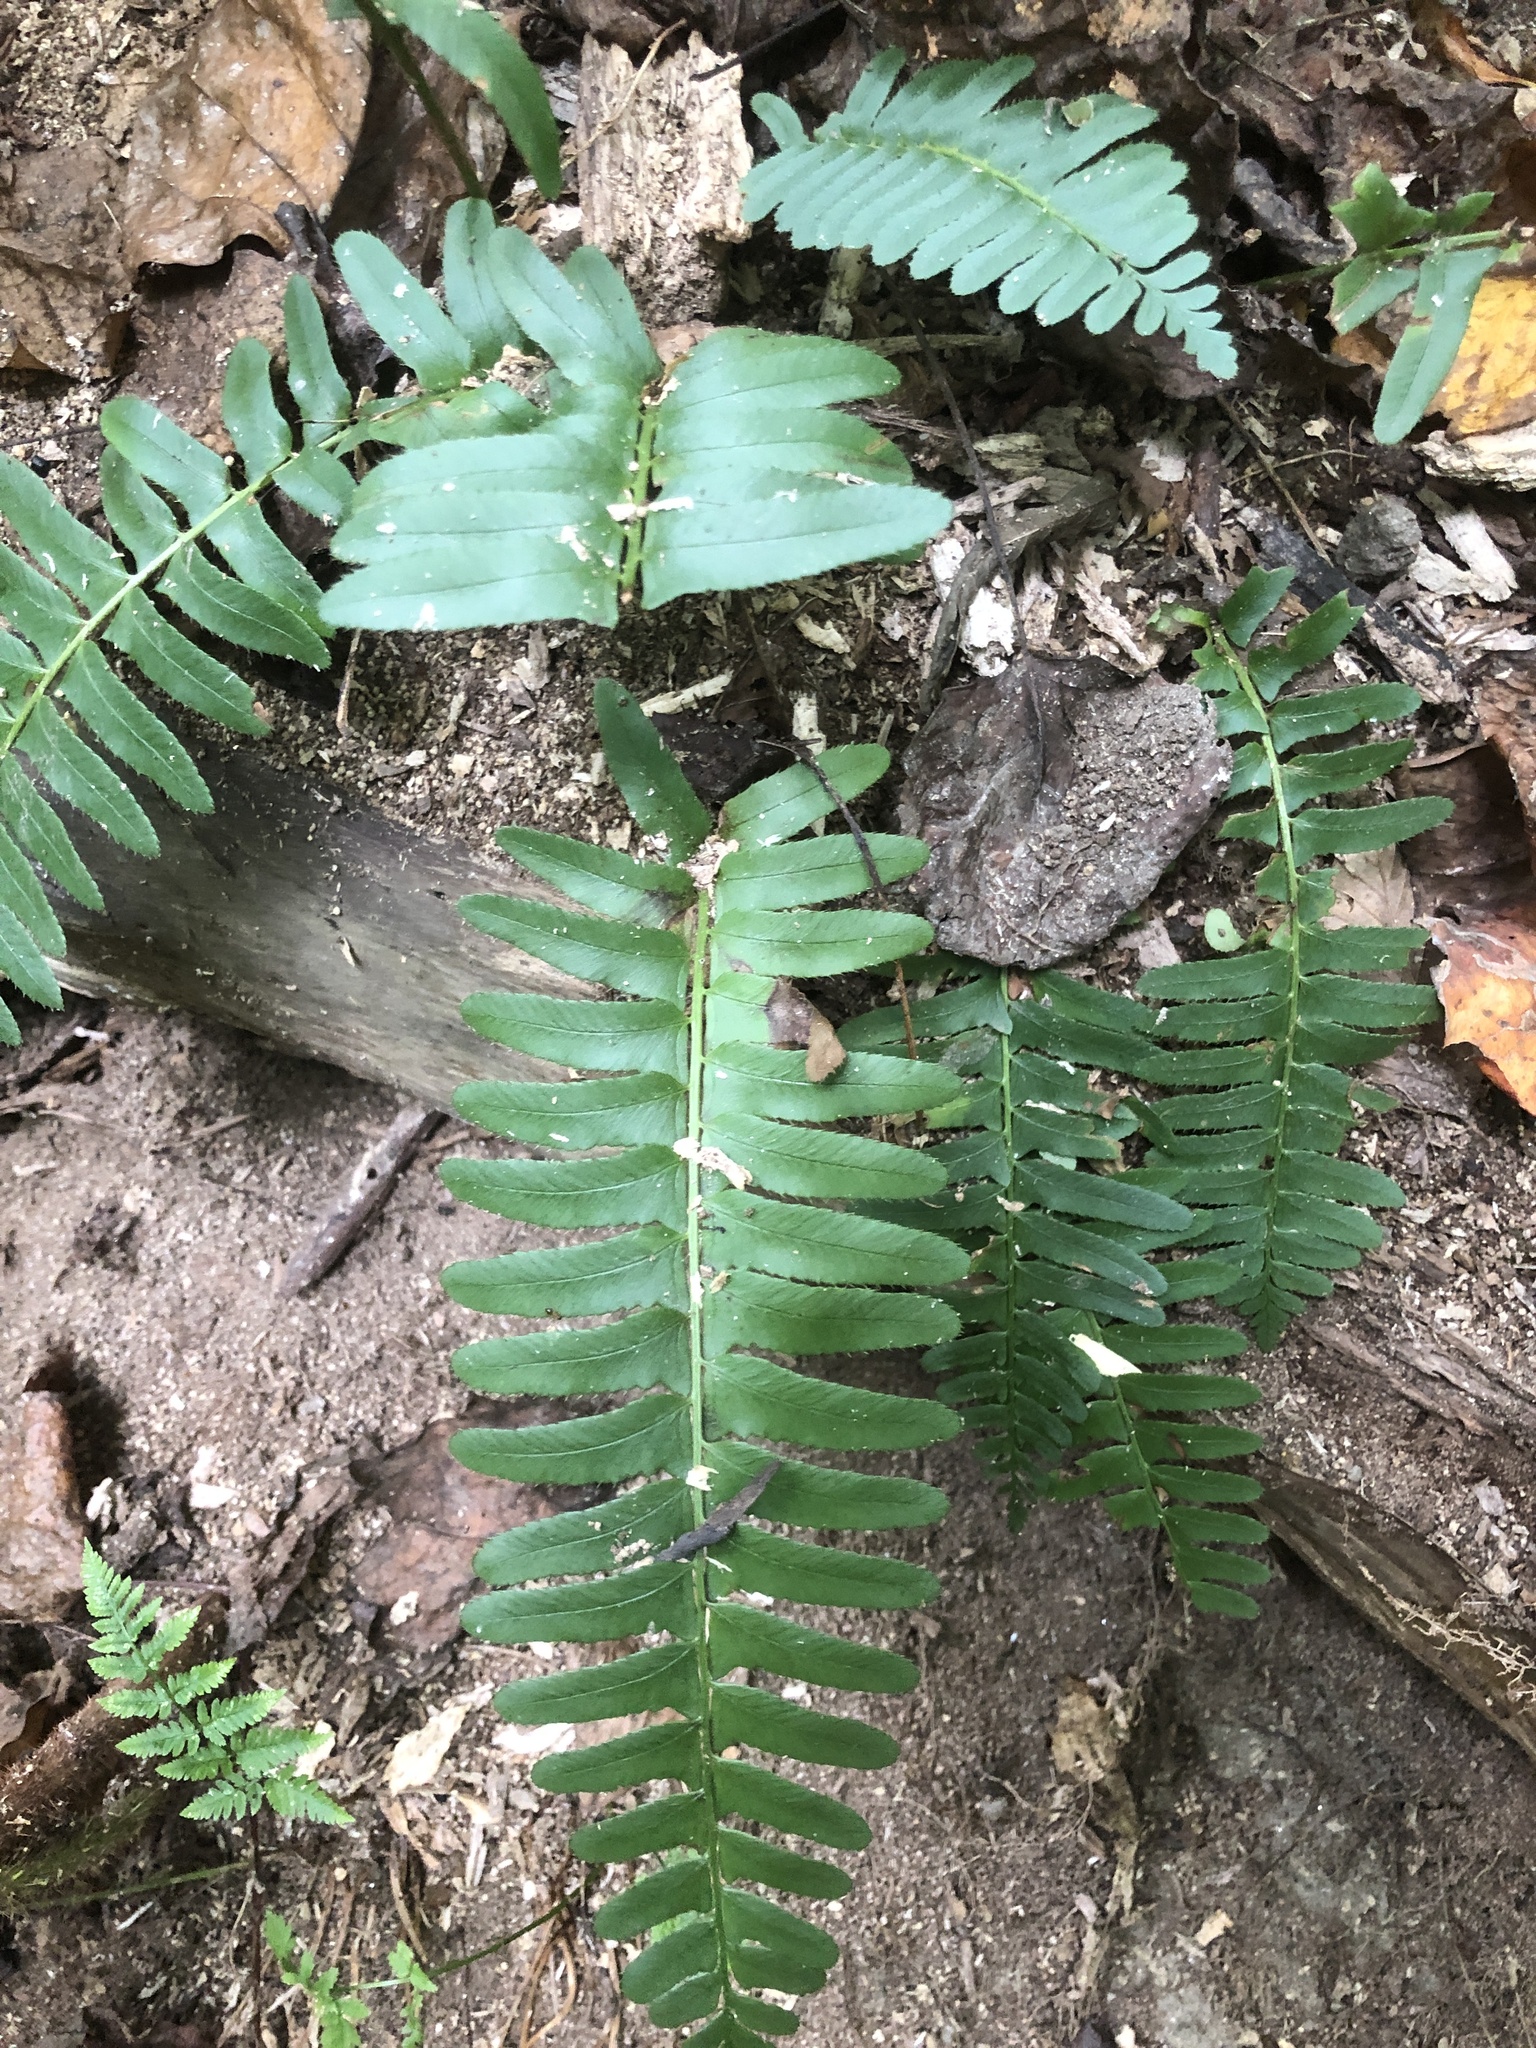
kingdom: Plantae
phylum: Tracheophyta
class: Polypodiopsida
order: Polypodiales
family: Dryopteridaceae
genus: Polystichum
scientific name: Polystichum acrostichoides
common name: Christmas fern
